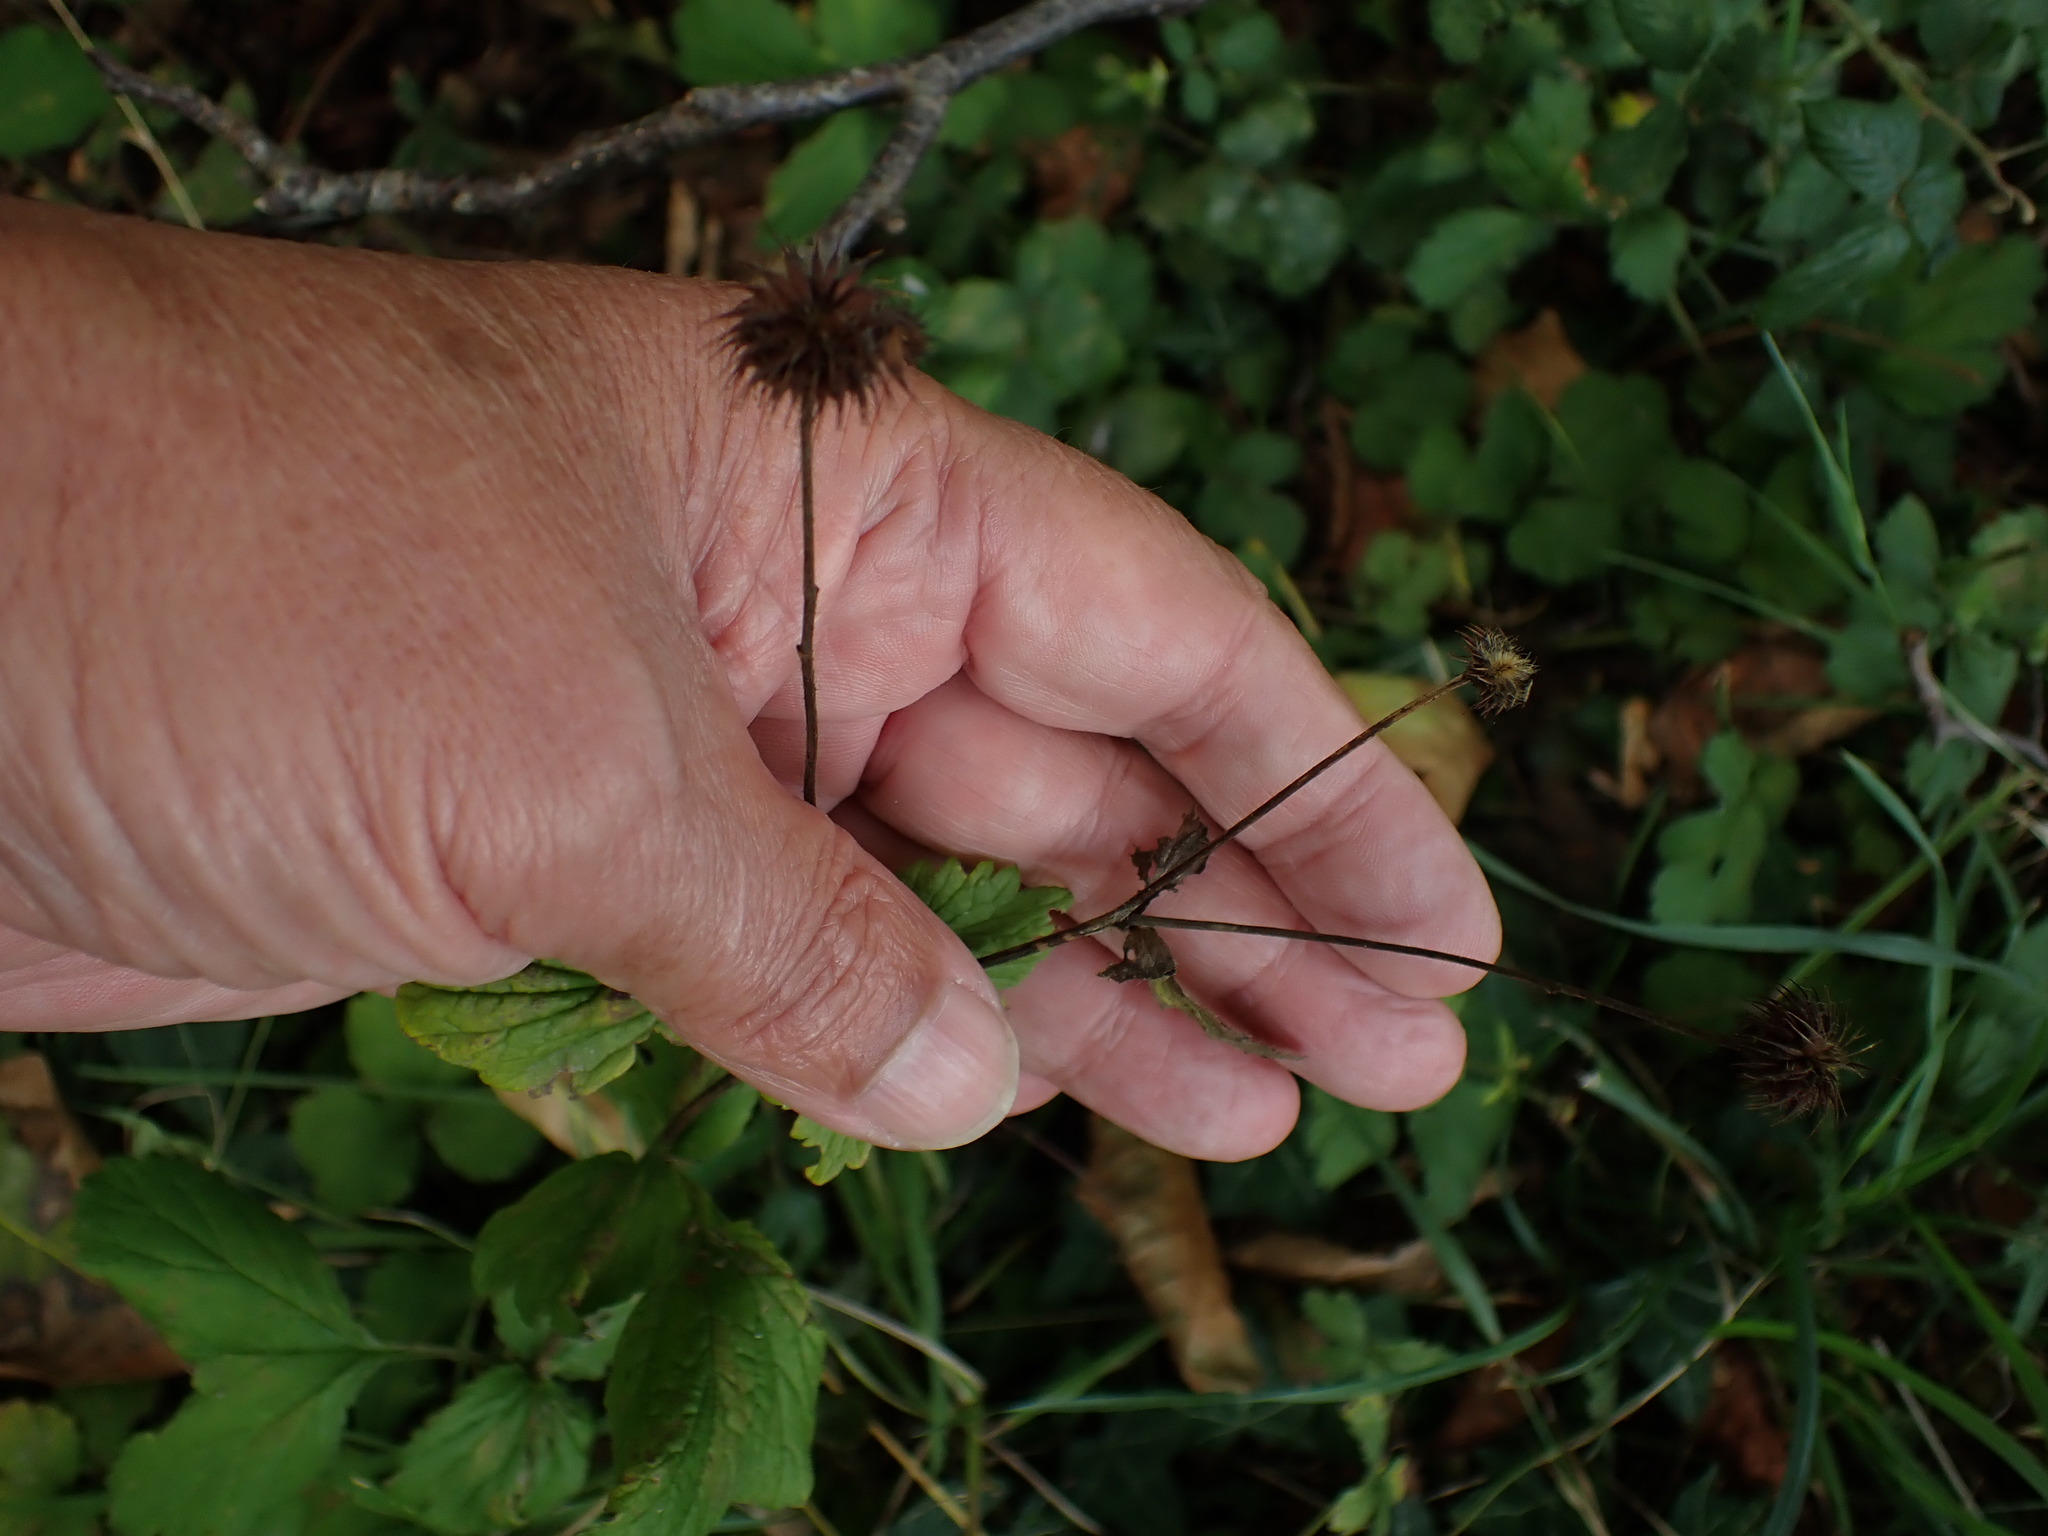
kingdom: Plantae
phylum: Tracheophyta
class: Magnoliopsida
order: Rosales
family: Rosaceae
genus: Geum
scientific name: Geum urbanum
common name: Wood avens
